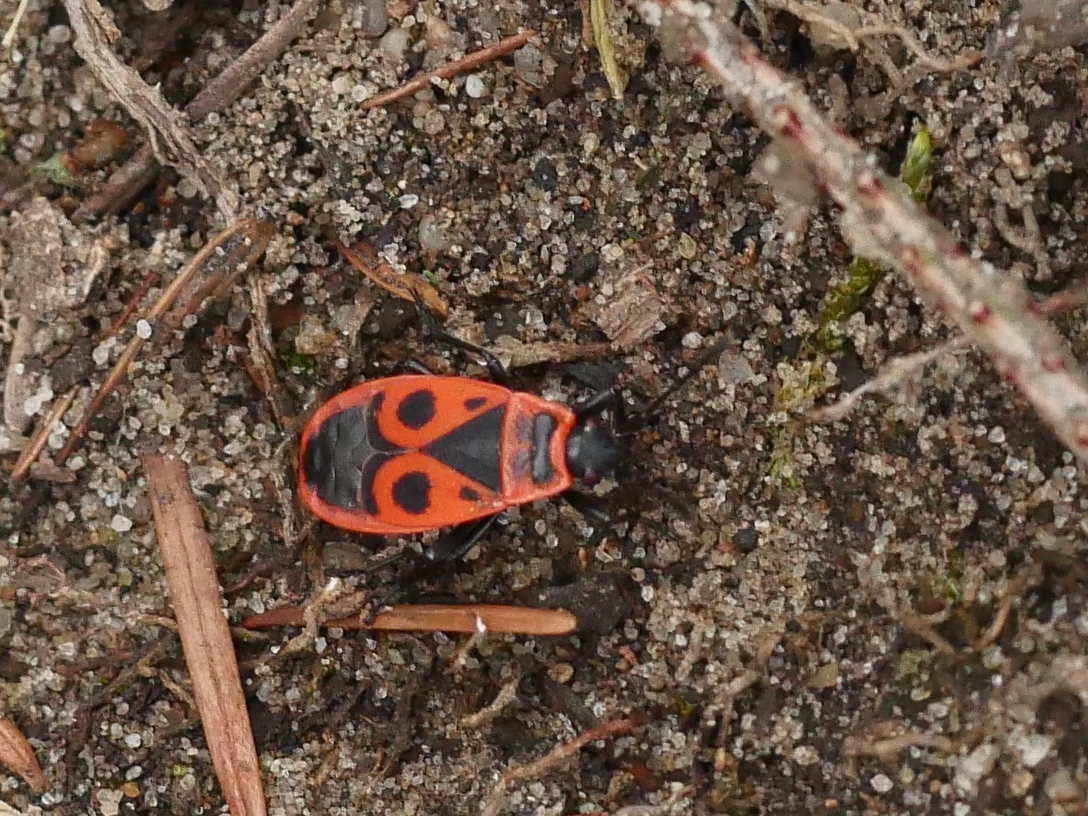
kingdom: Animalia
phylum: Arthropoda
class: Insecta
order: Hemiptera
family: Pyrrhocoridae
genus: Pyrrhocoris
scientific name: Pyrrhocoris apterus
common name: Firebug
